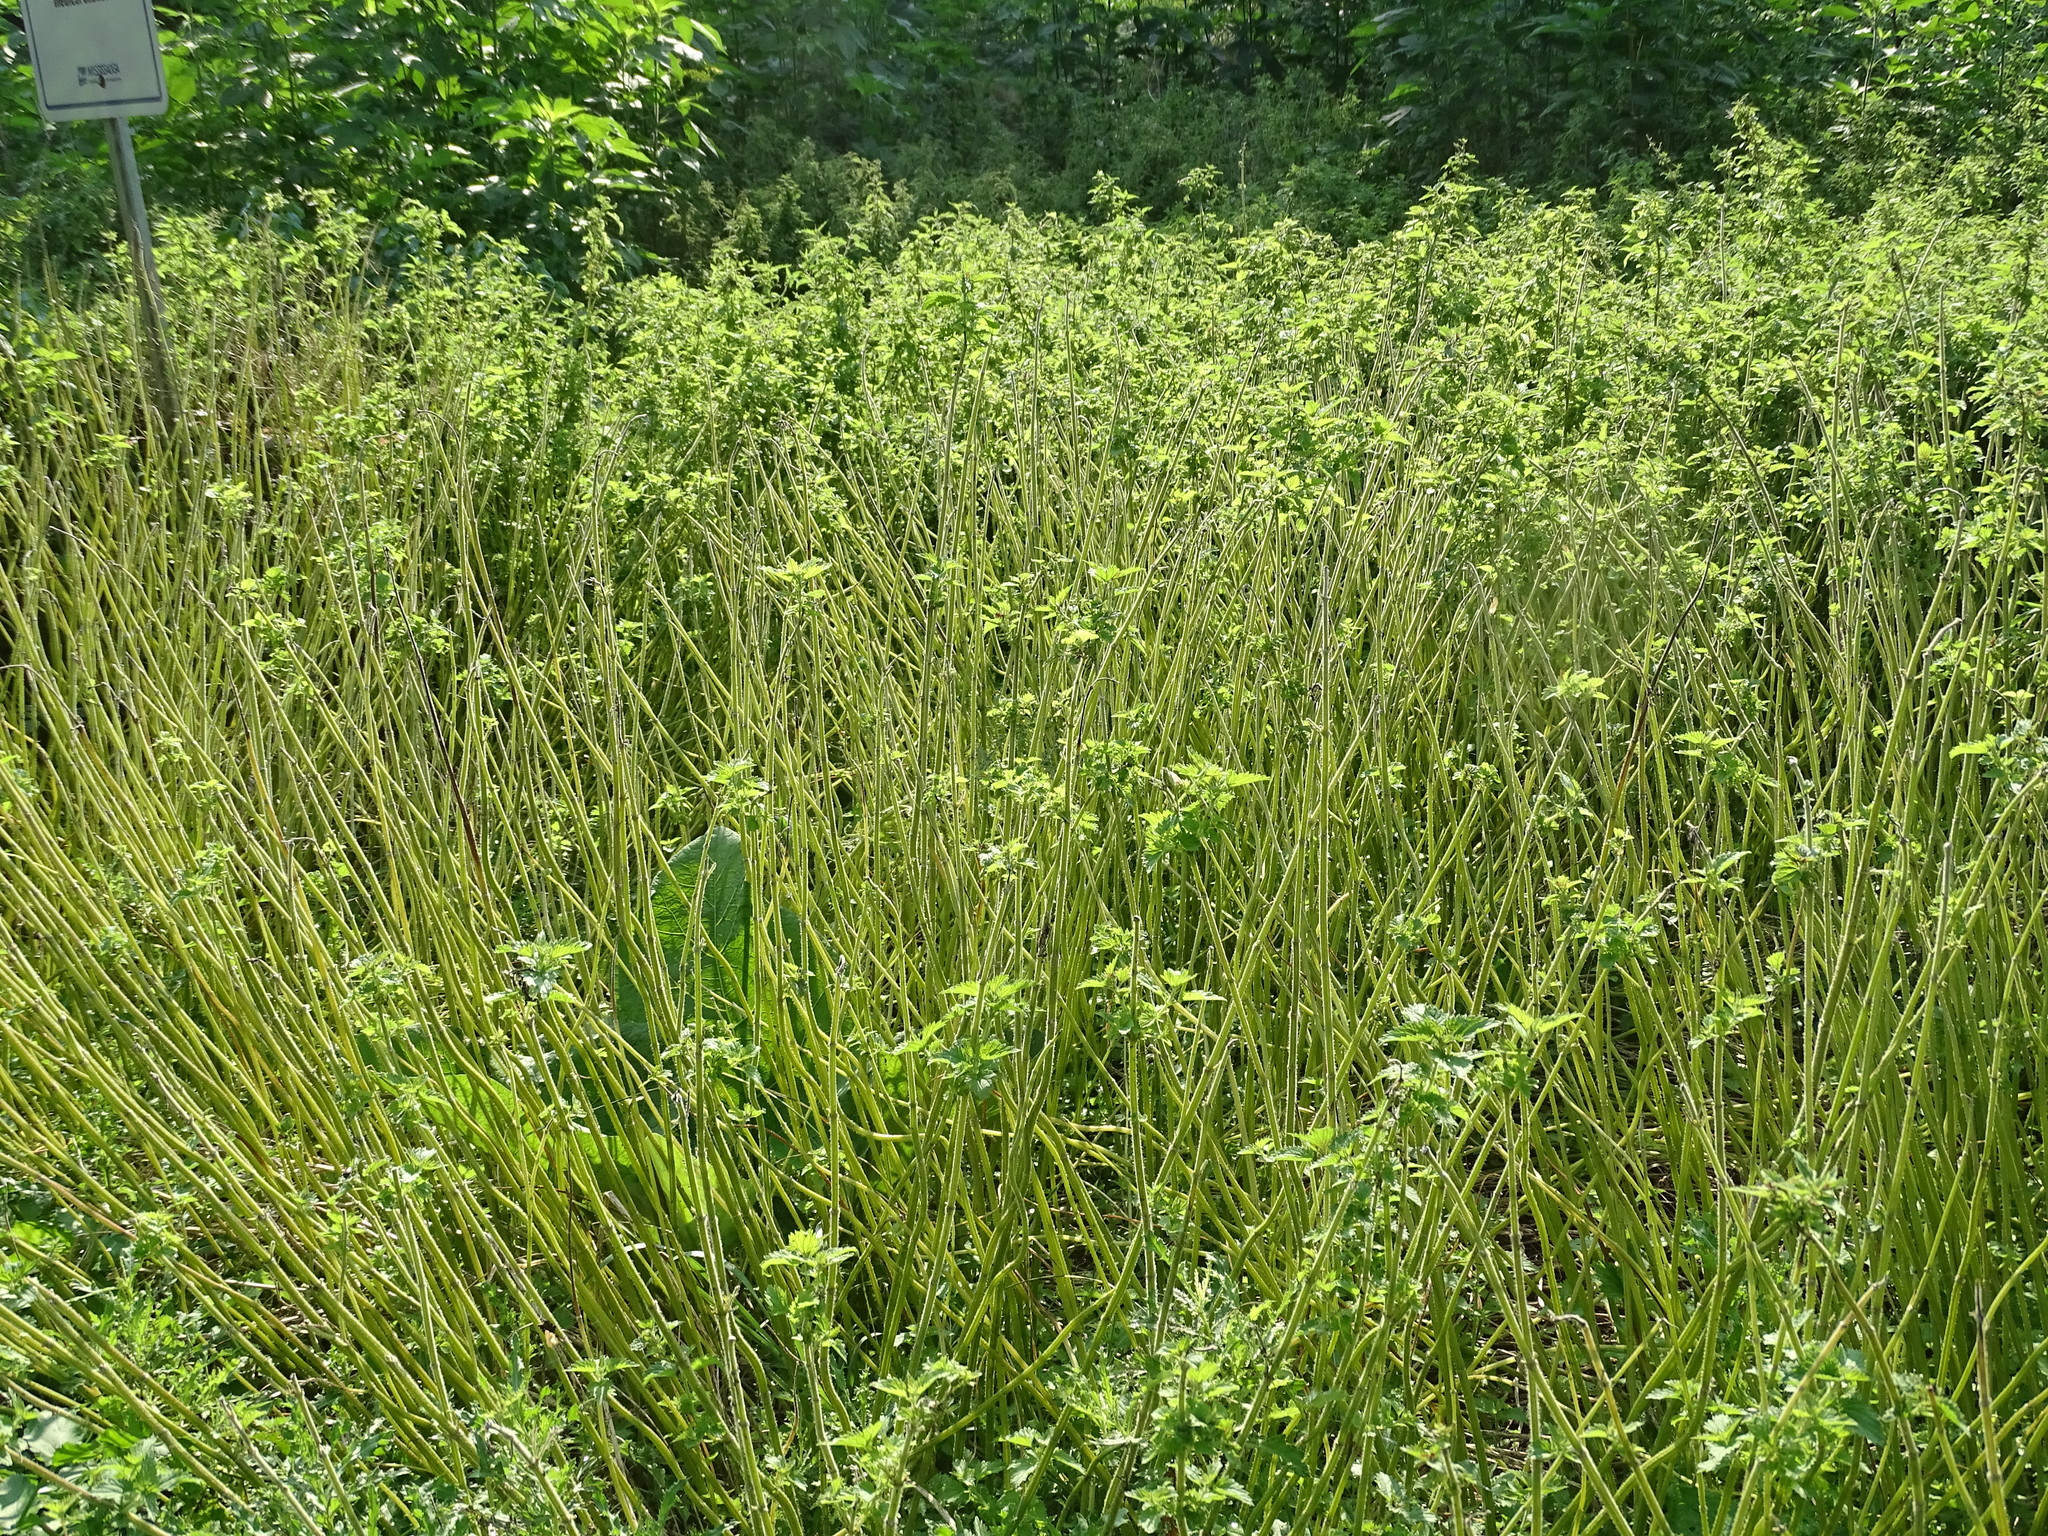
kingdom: Plantae
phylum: Tracheophyta
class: Magnoliopsida
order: Rosales
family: Urticaceae
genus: Urtica
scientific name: Urtica dioica
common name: Common nettle
